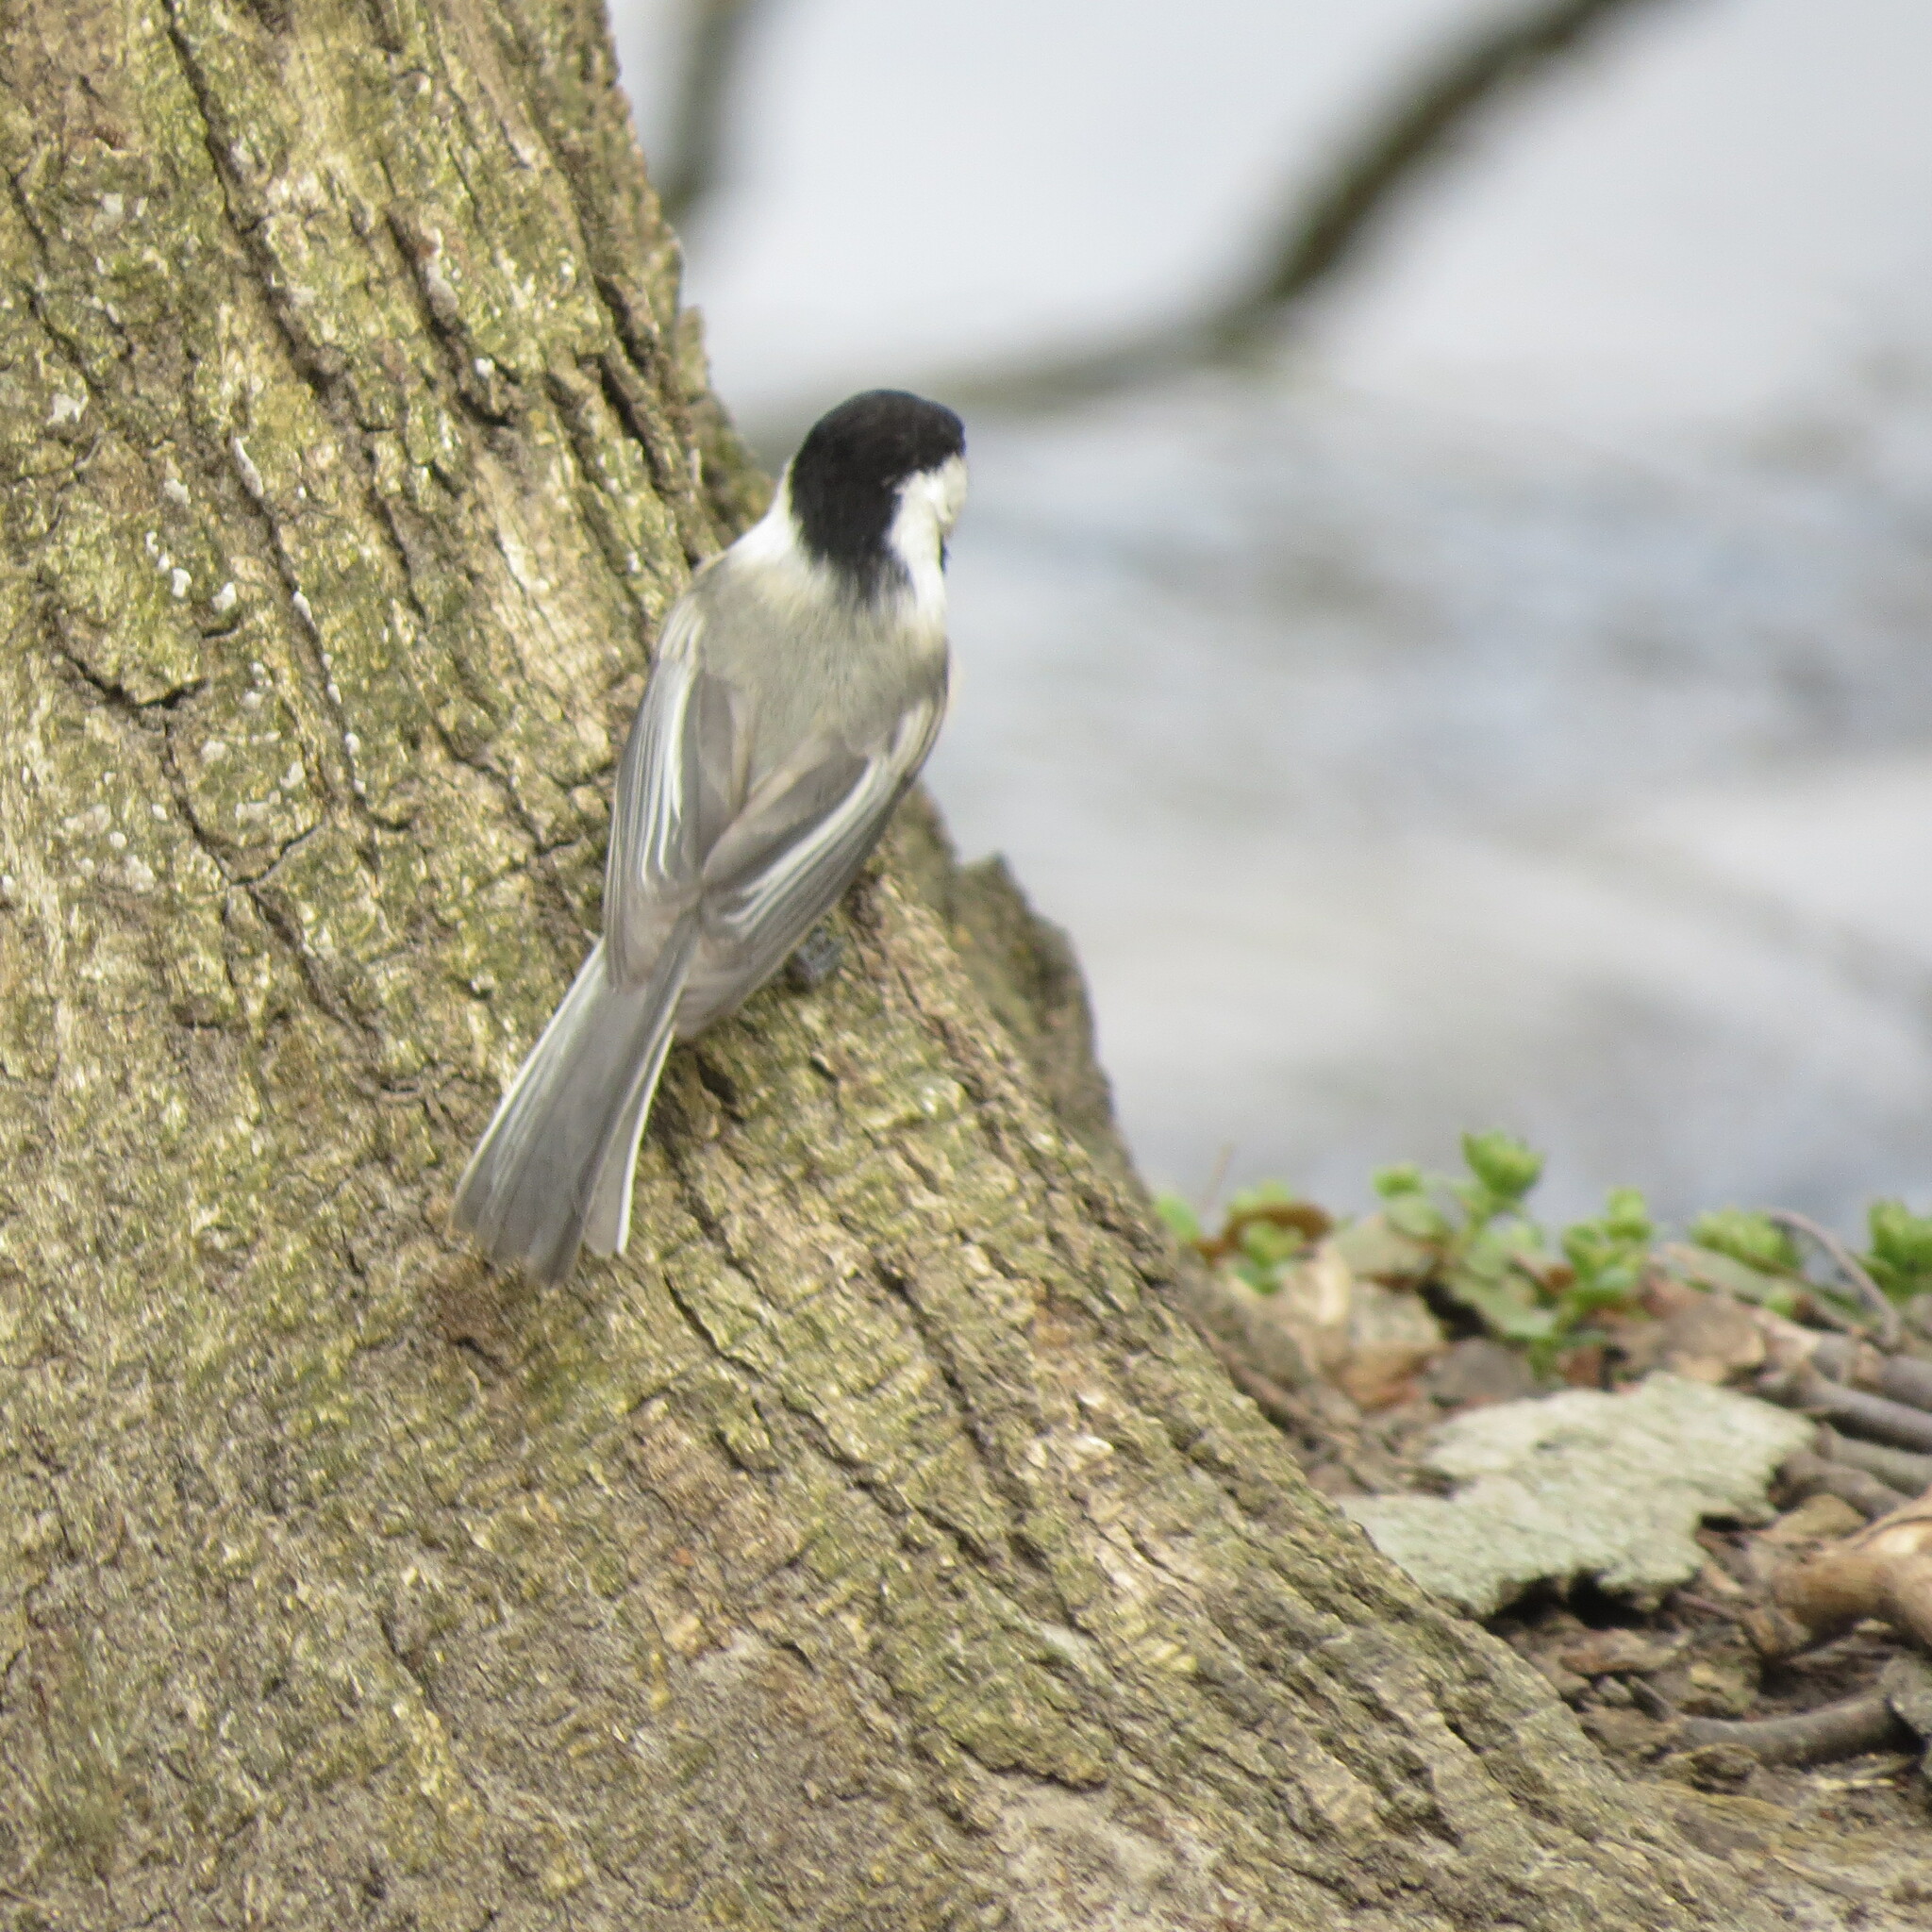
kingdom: Animalia
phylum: Chordata
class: Aves
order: Passeriformes
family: Paridae
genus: Poecile
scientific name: Poecile atricapillus
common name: Black-capped chickadee
